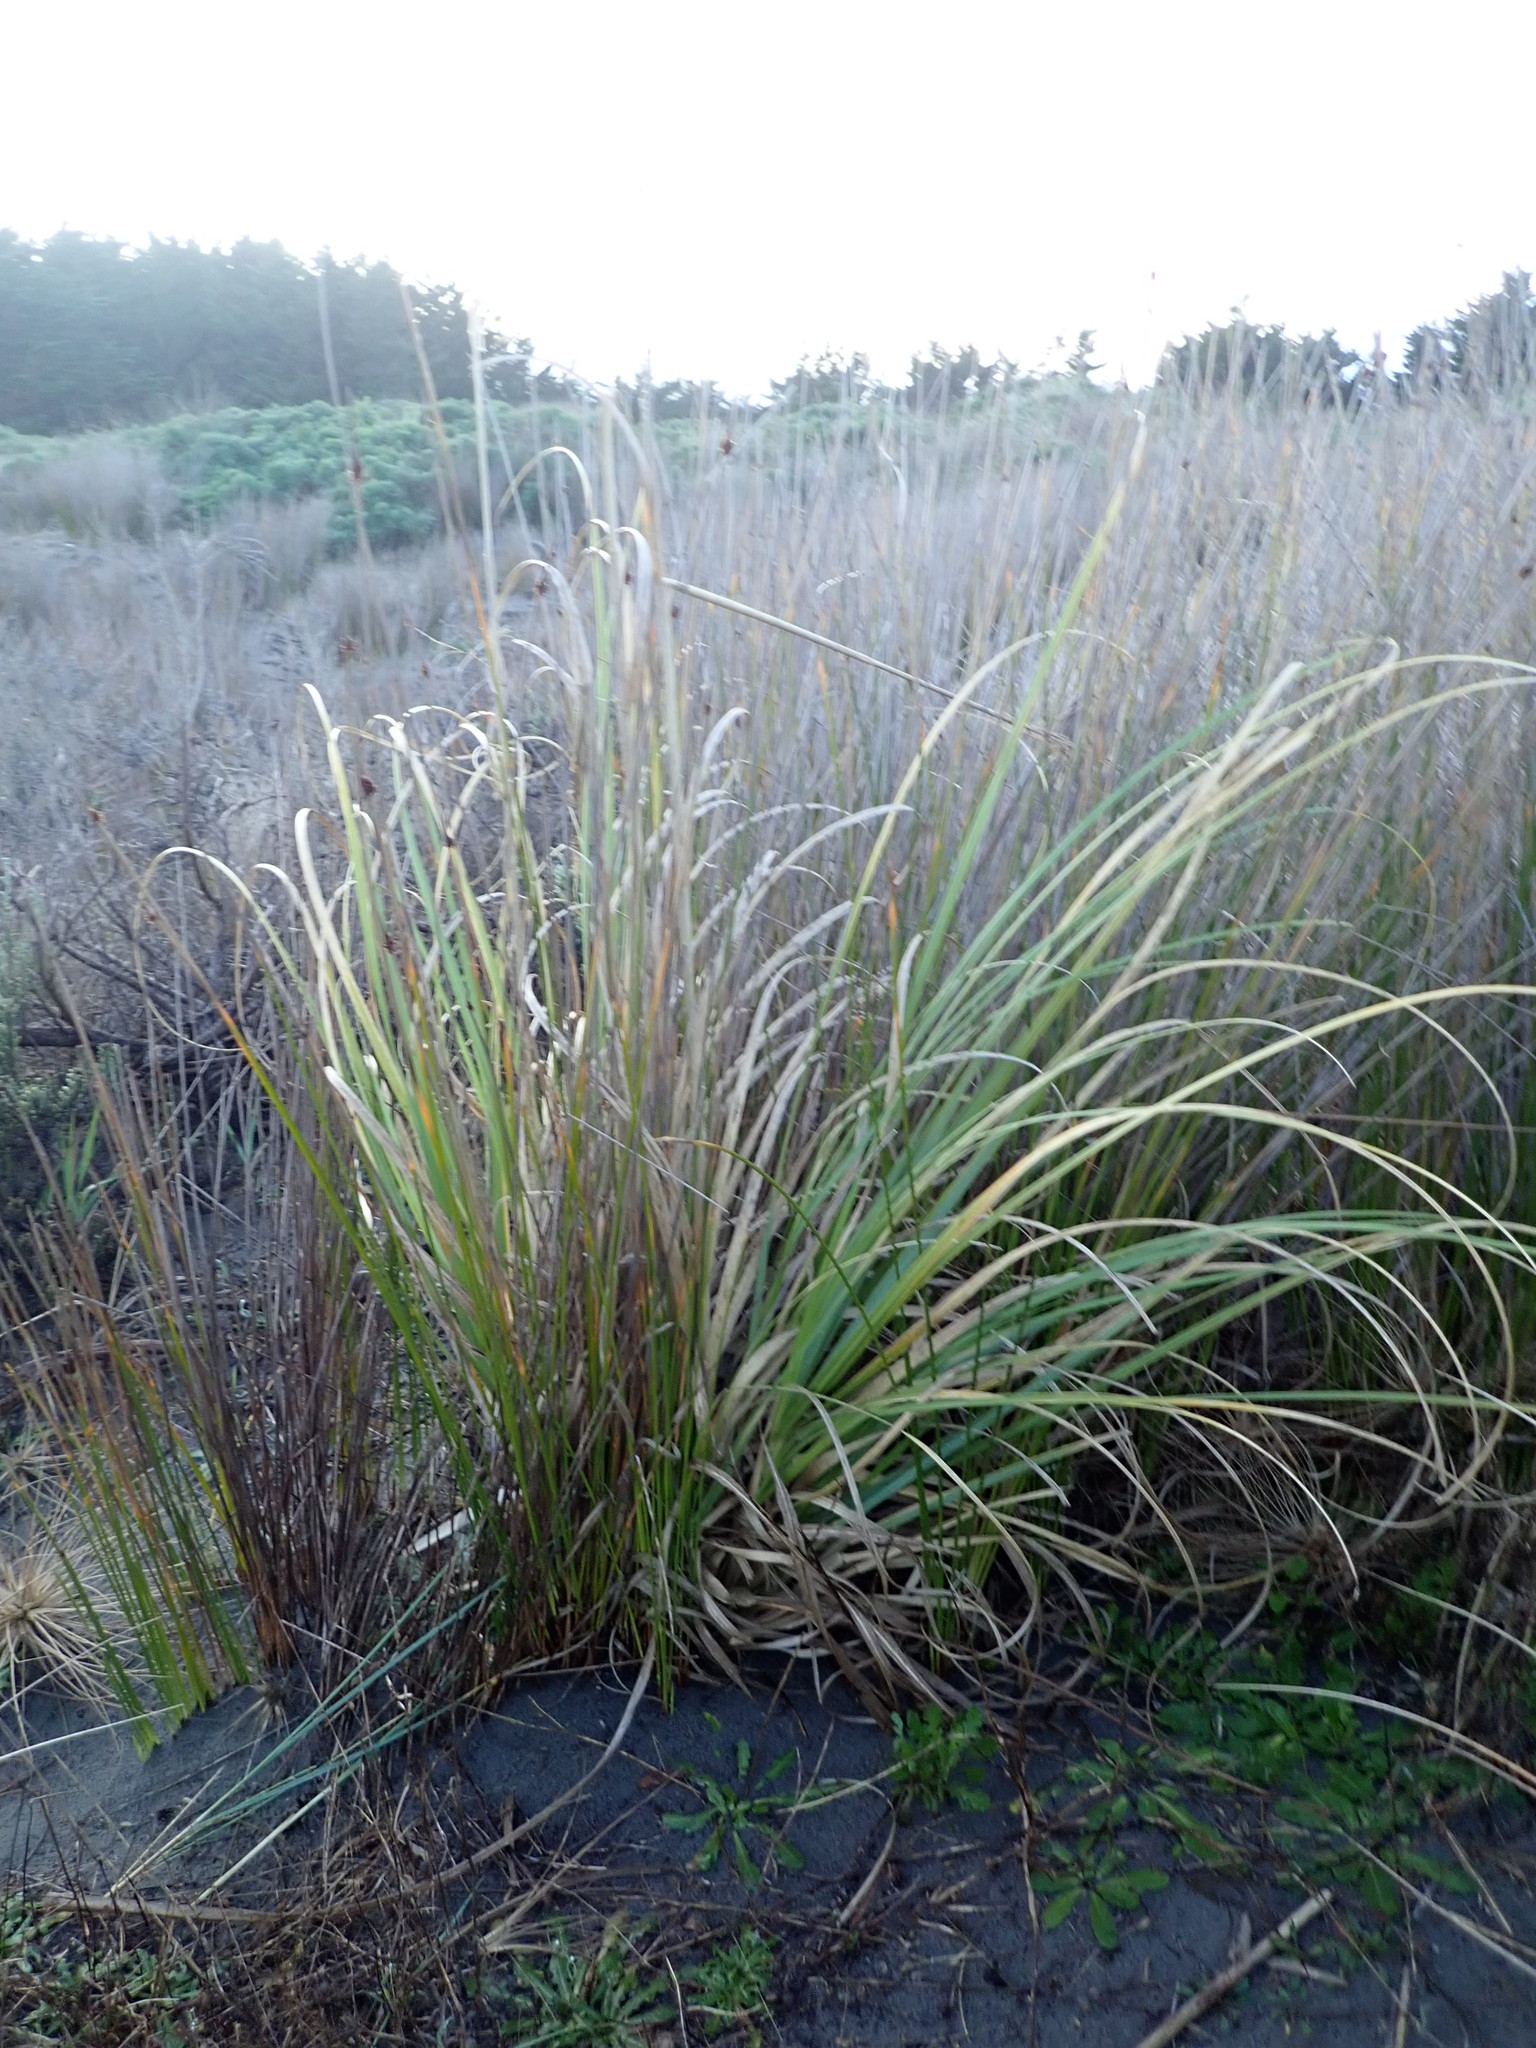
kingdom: Plantae
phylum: Tracheophyta
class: Liliopsida
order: Poales
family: Poaceae
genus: Cortaderia
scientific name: Cortaderia selloana
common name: Uruguayan pampas grass
